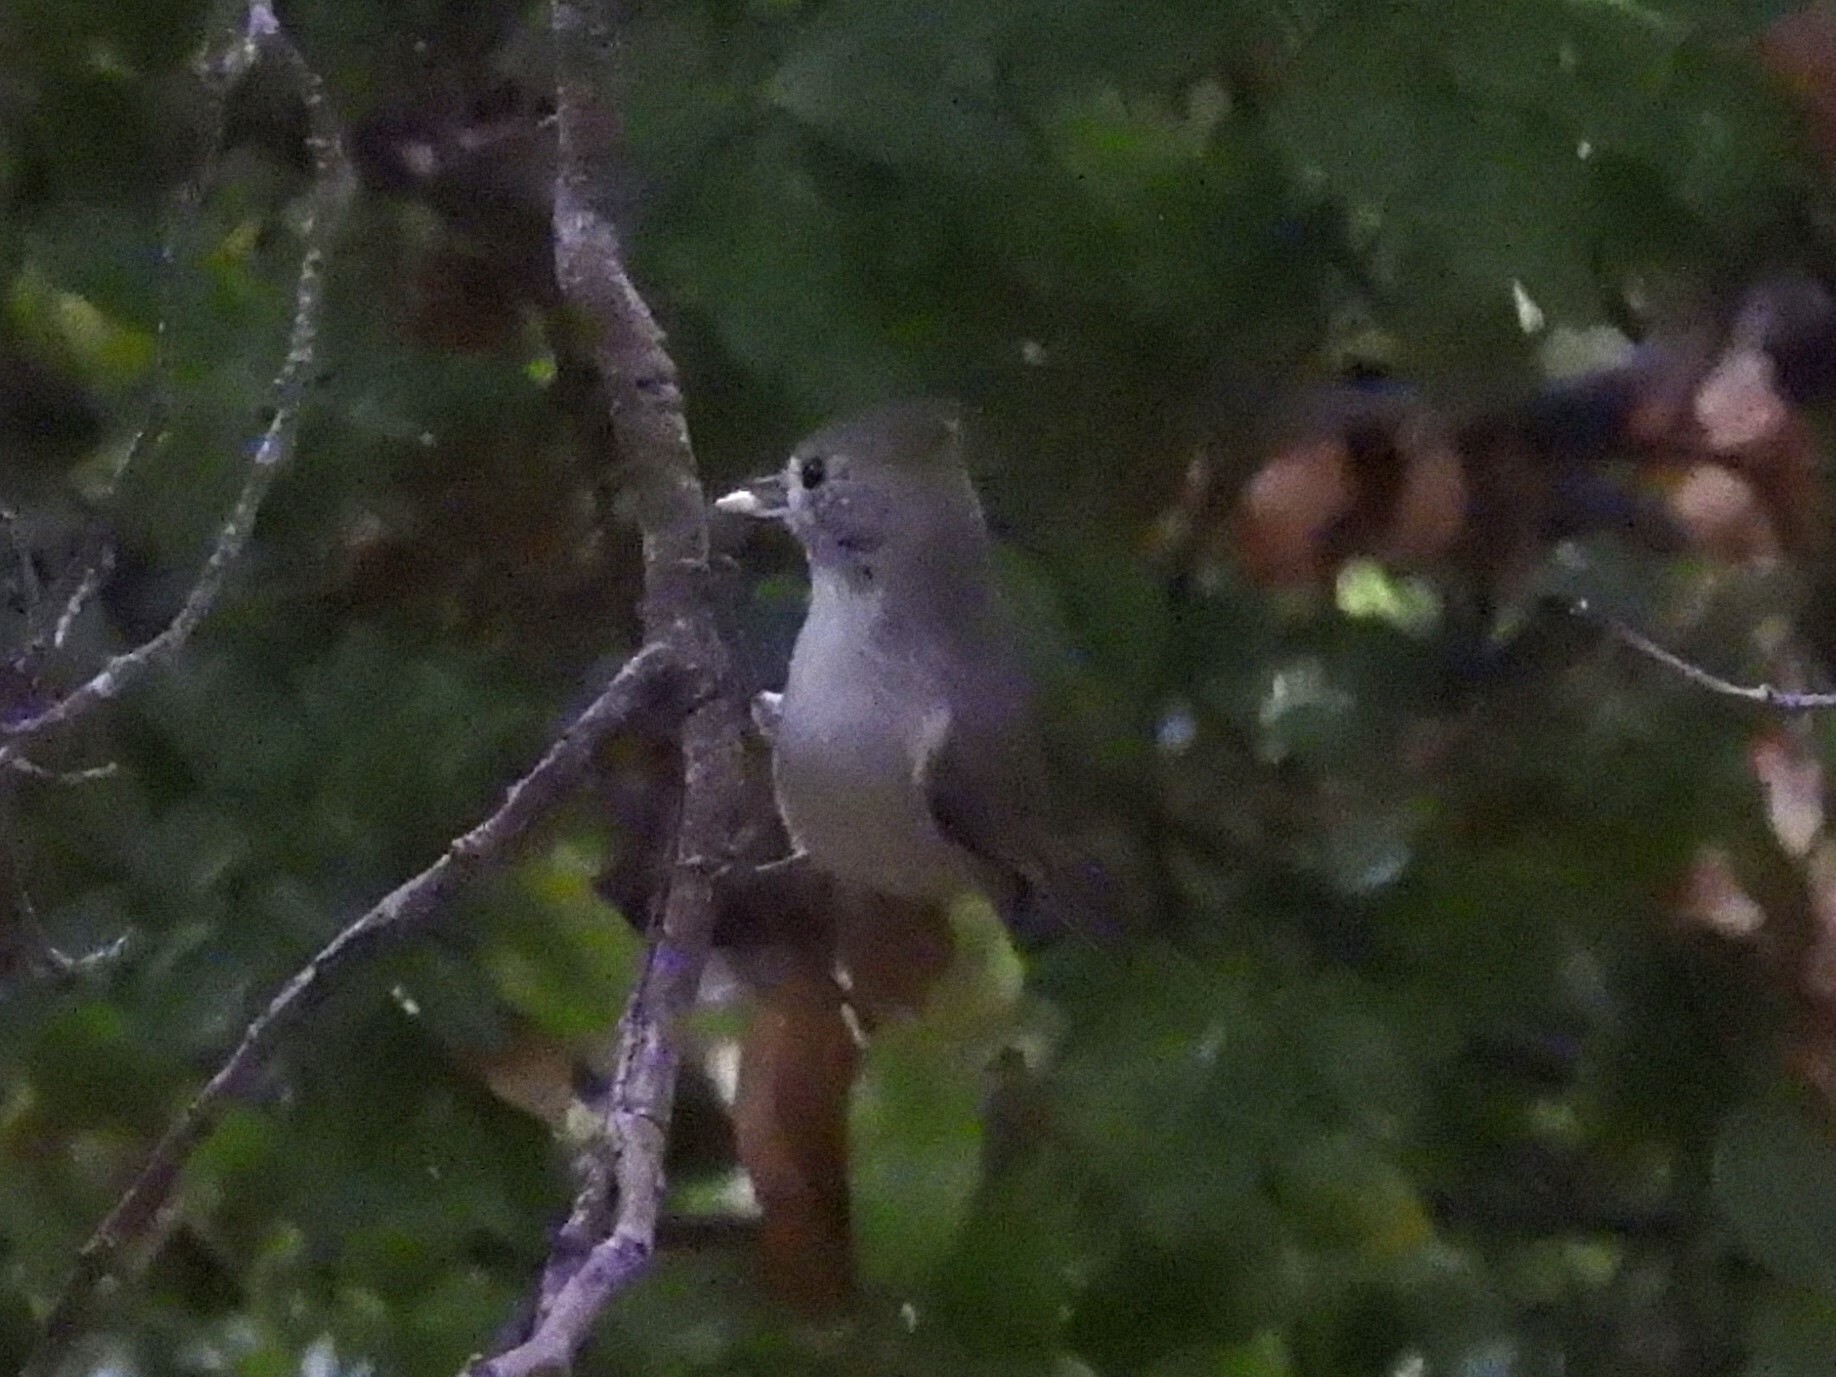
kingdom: Animalia
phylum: Chordata
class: Aves
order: Passeriformes
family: Paridae
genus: Baeolophus
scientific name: Baeolophus inornatus
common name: Oak titmouse
